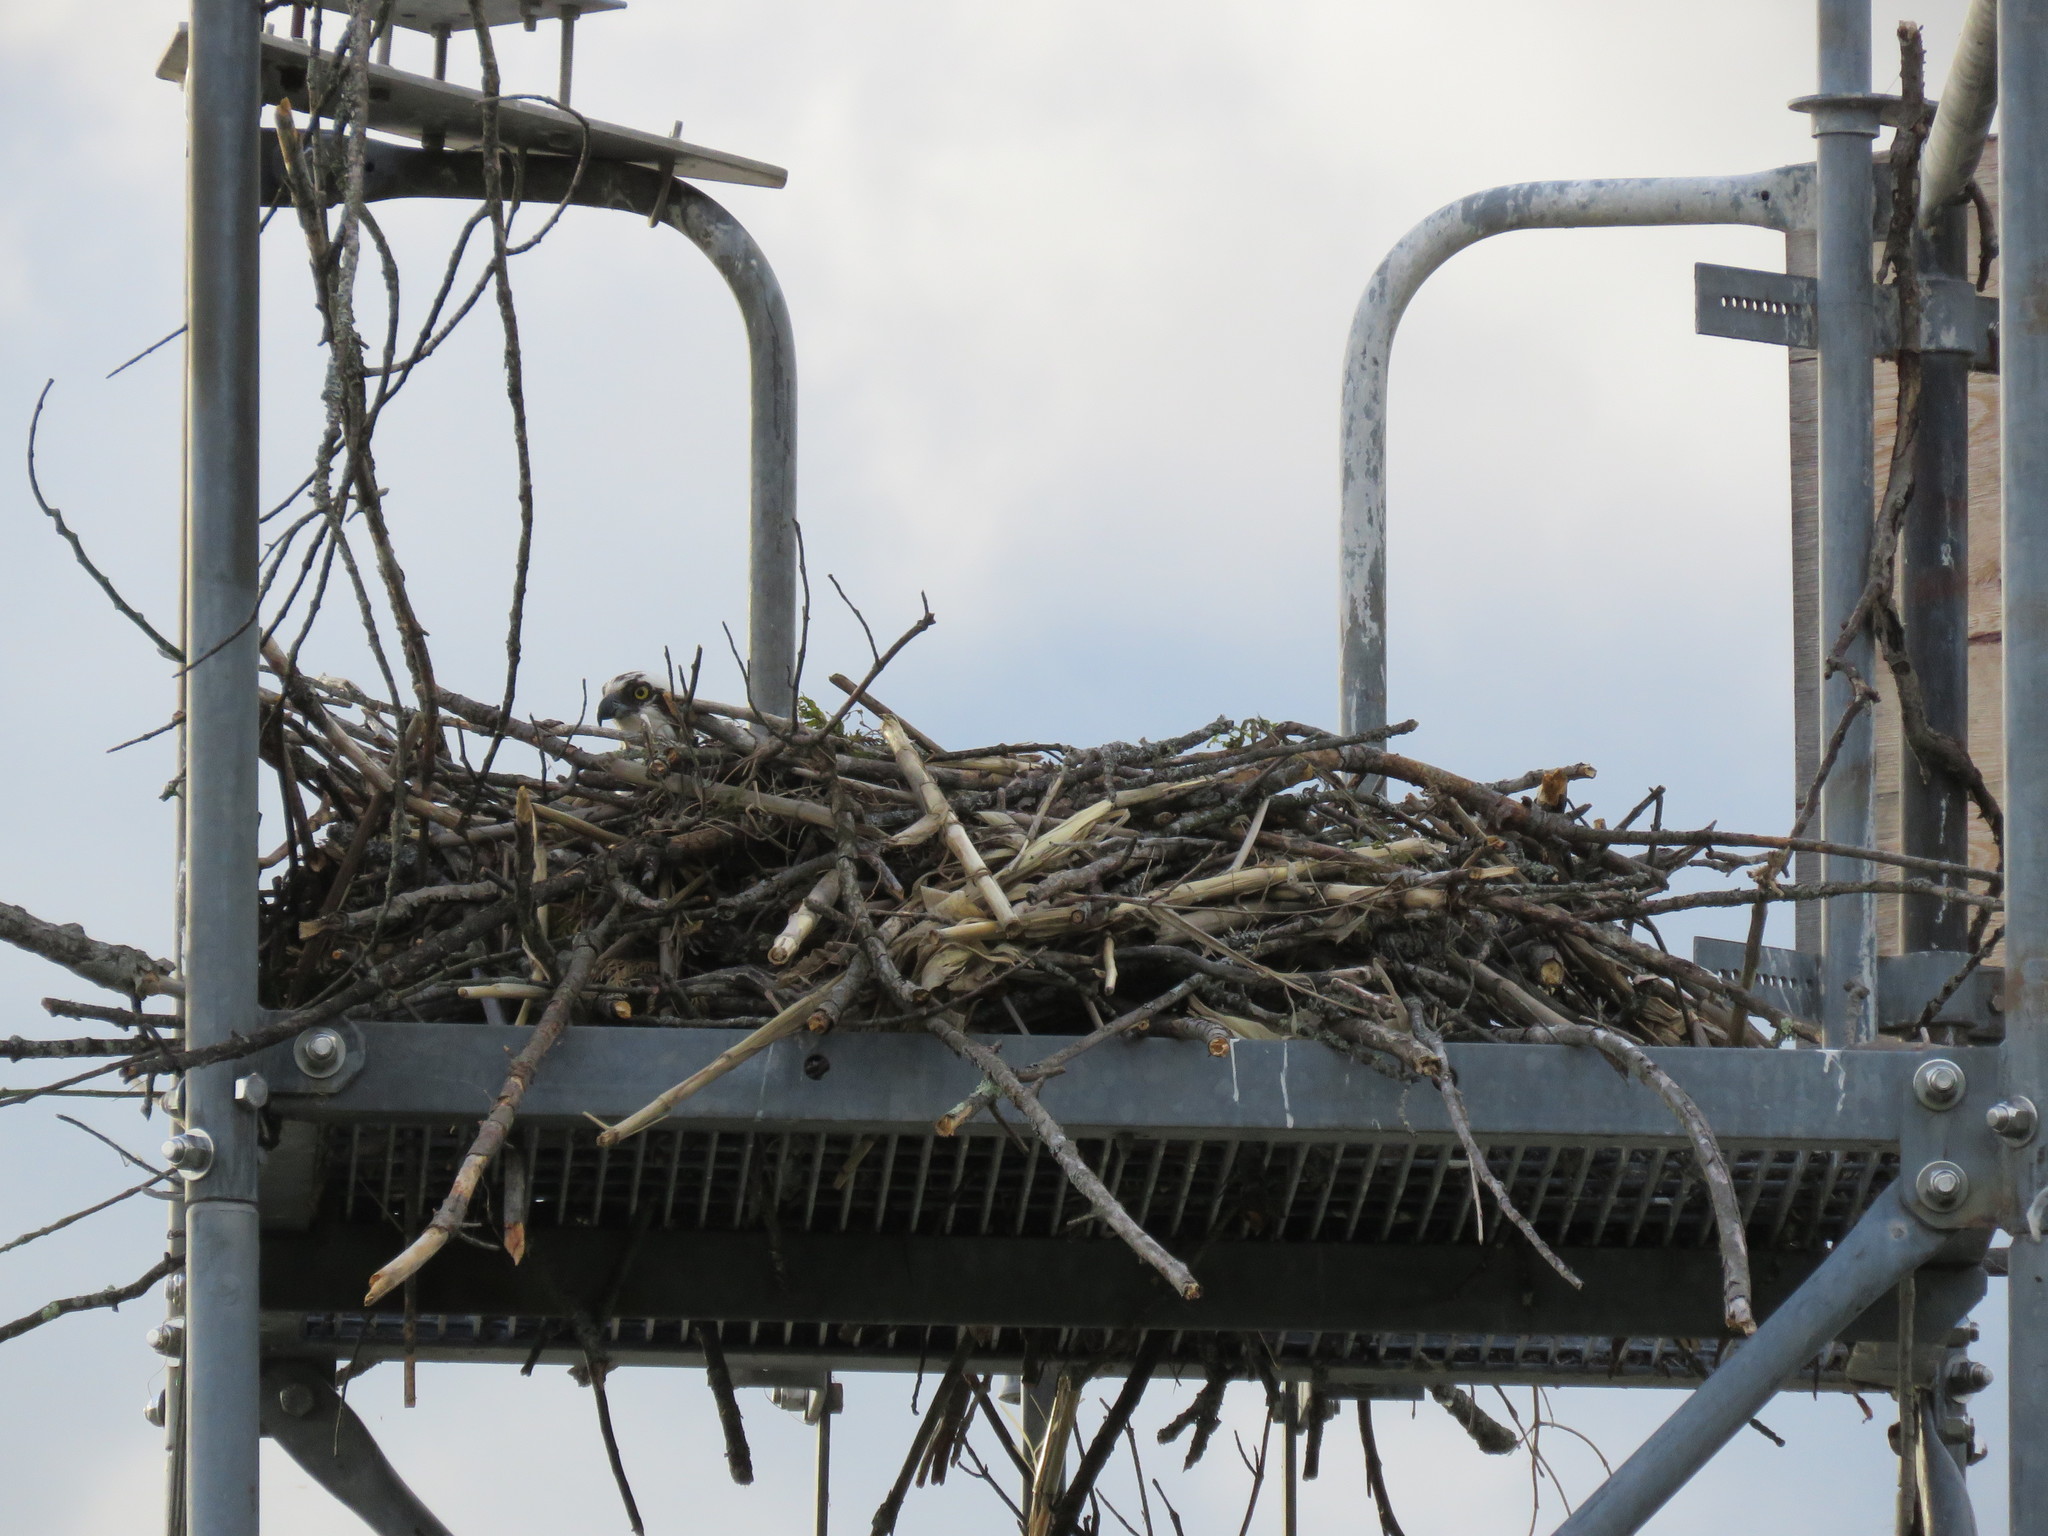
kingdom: Animalia
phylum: Chordata
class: Aves
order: Accipitriformes
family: Pandionidae
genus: Pandion
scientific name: Pandion haliaetus
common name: Osprey
